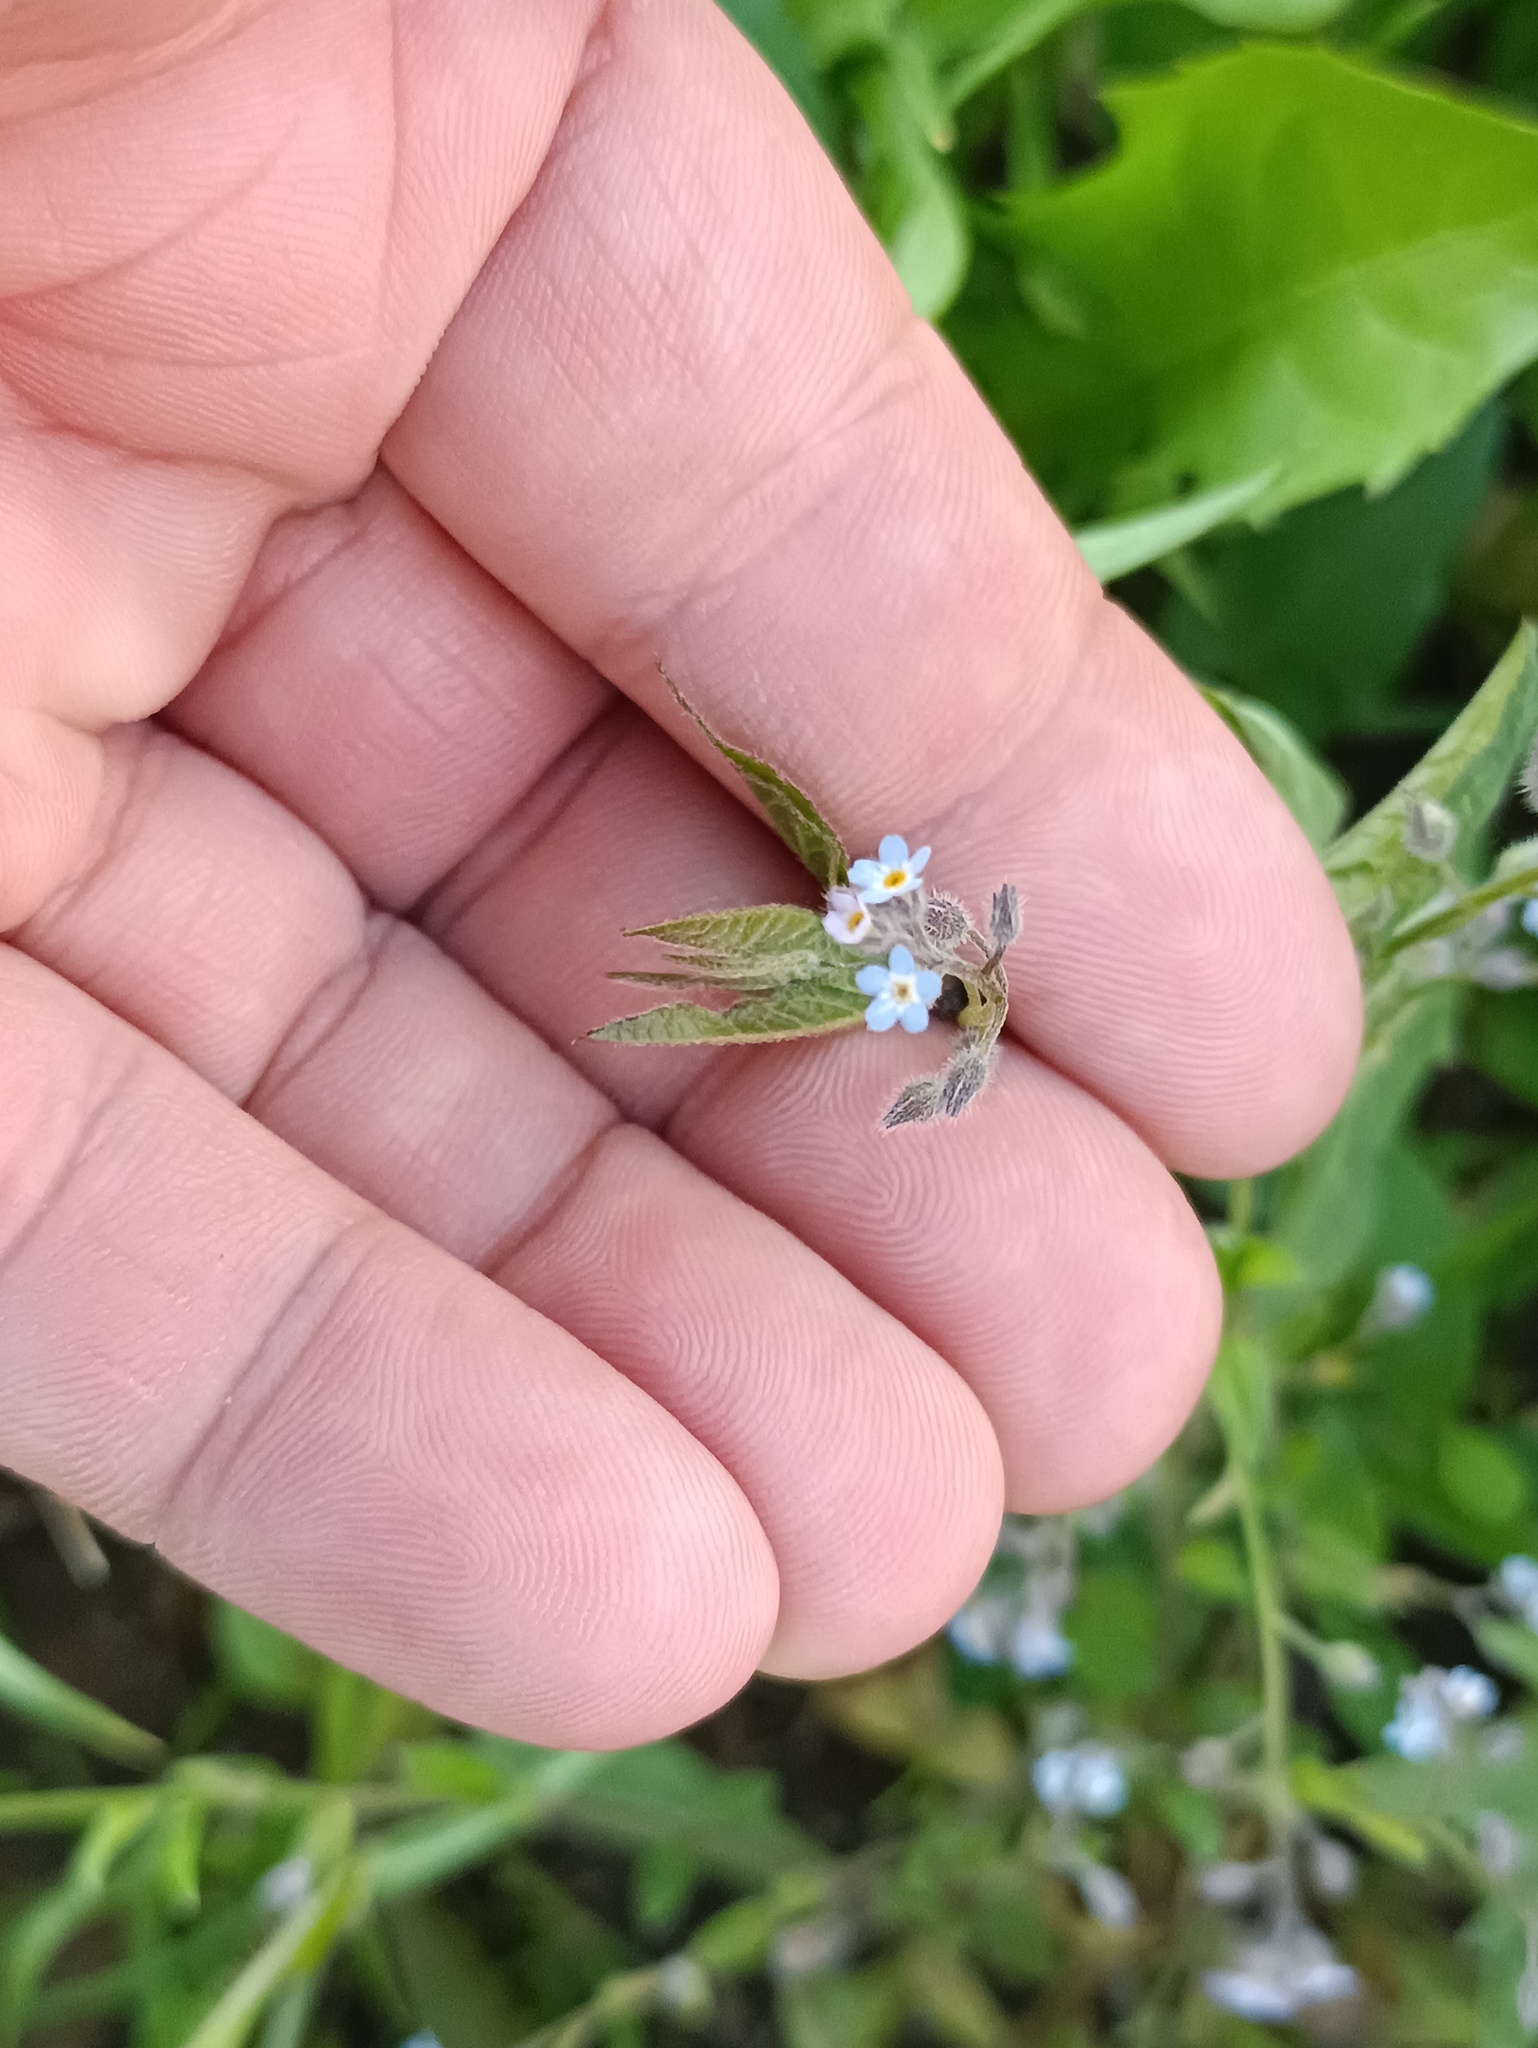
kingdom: Plantae
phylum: Tracheophyta
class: Magnoliopsida
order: Boraginales
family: Boraginaceae
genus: Myosotis
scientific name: Myosotis arvensis
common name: Field forget-me-not
